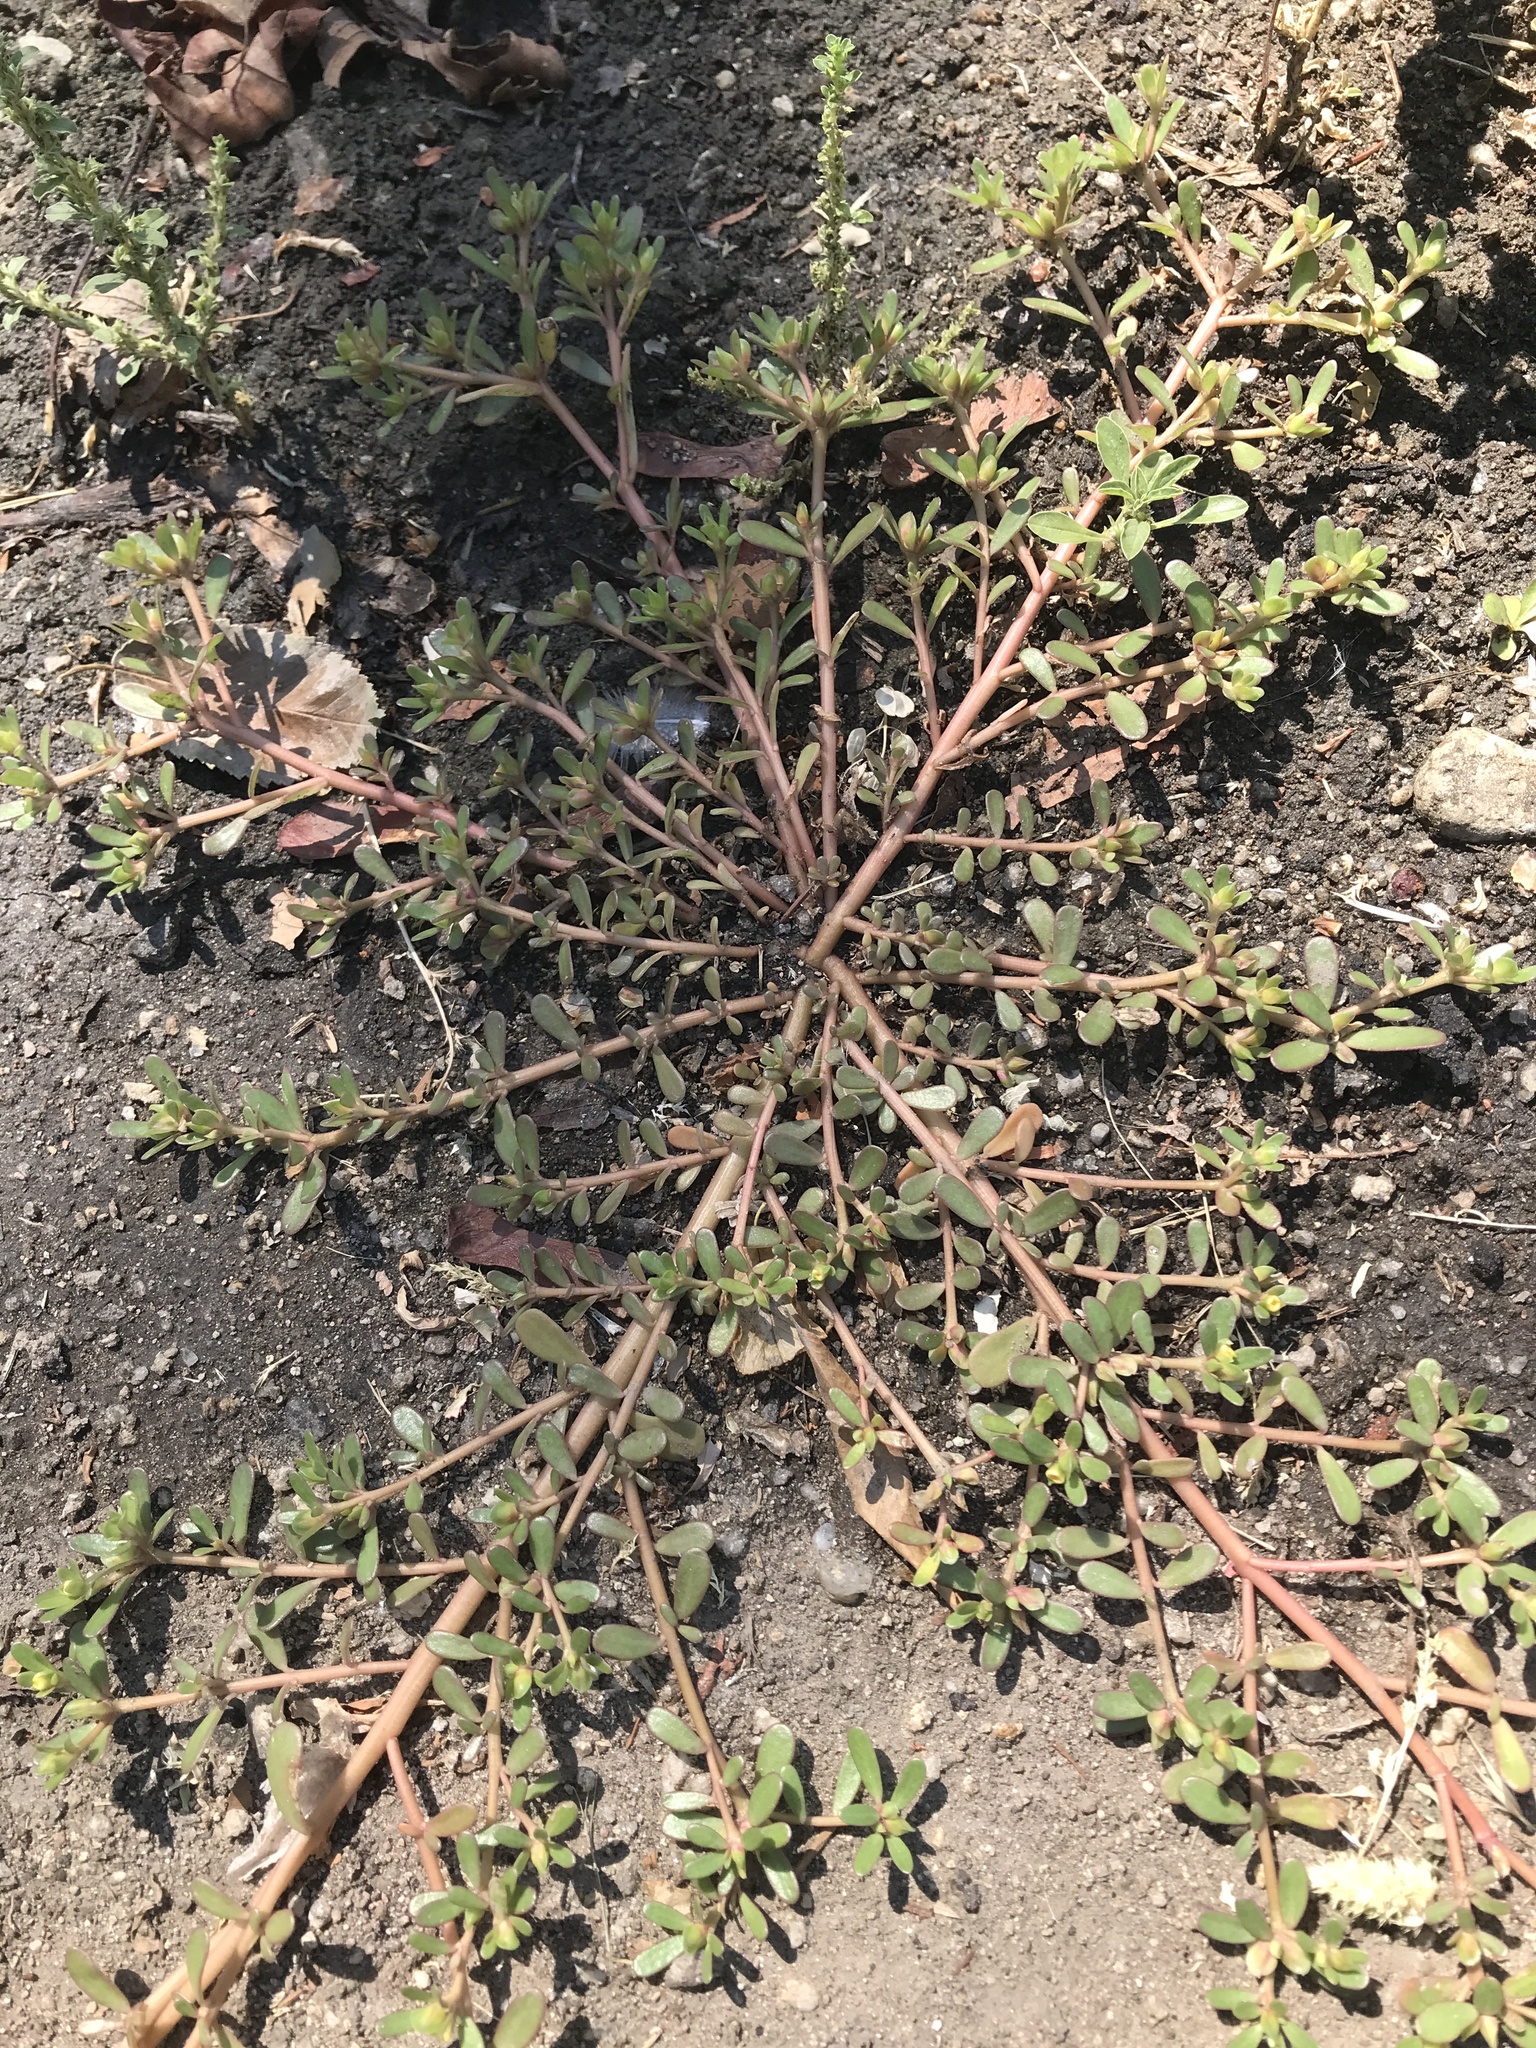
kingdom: Plantae
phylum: Tracheophyta
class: Magnoliopsida
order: Caryophyllales
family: Portulacaceae
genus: Portulaca
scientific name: Portulaca oleracea
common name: Common purslane
